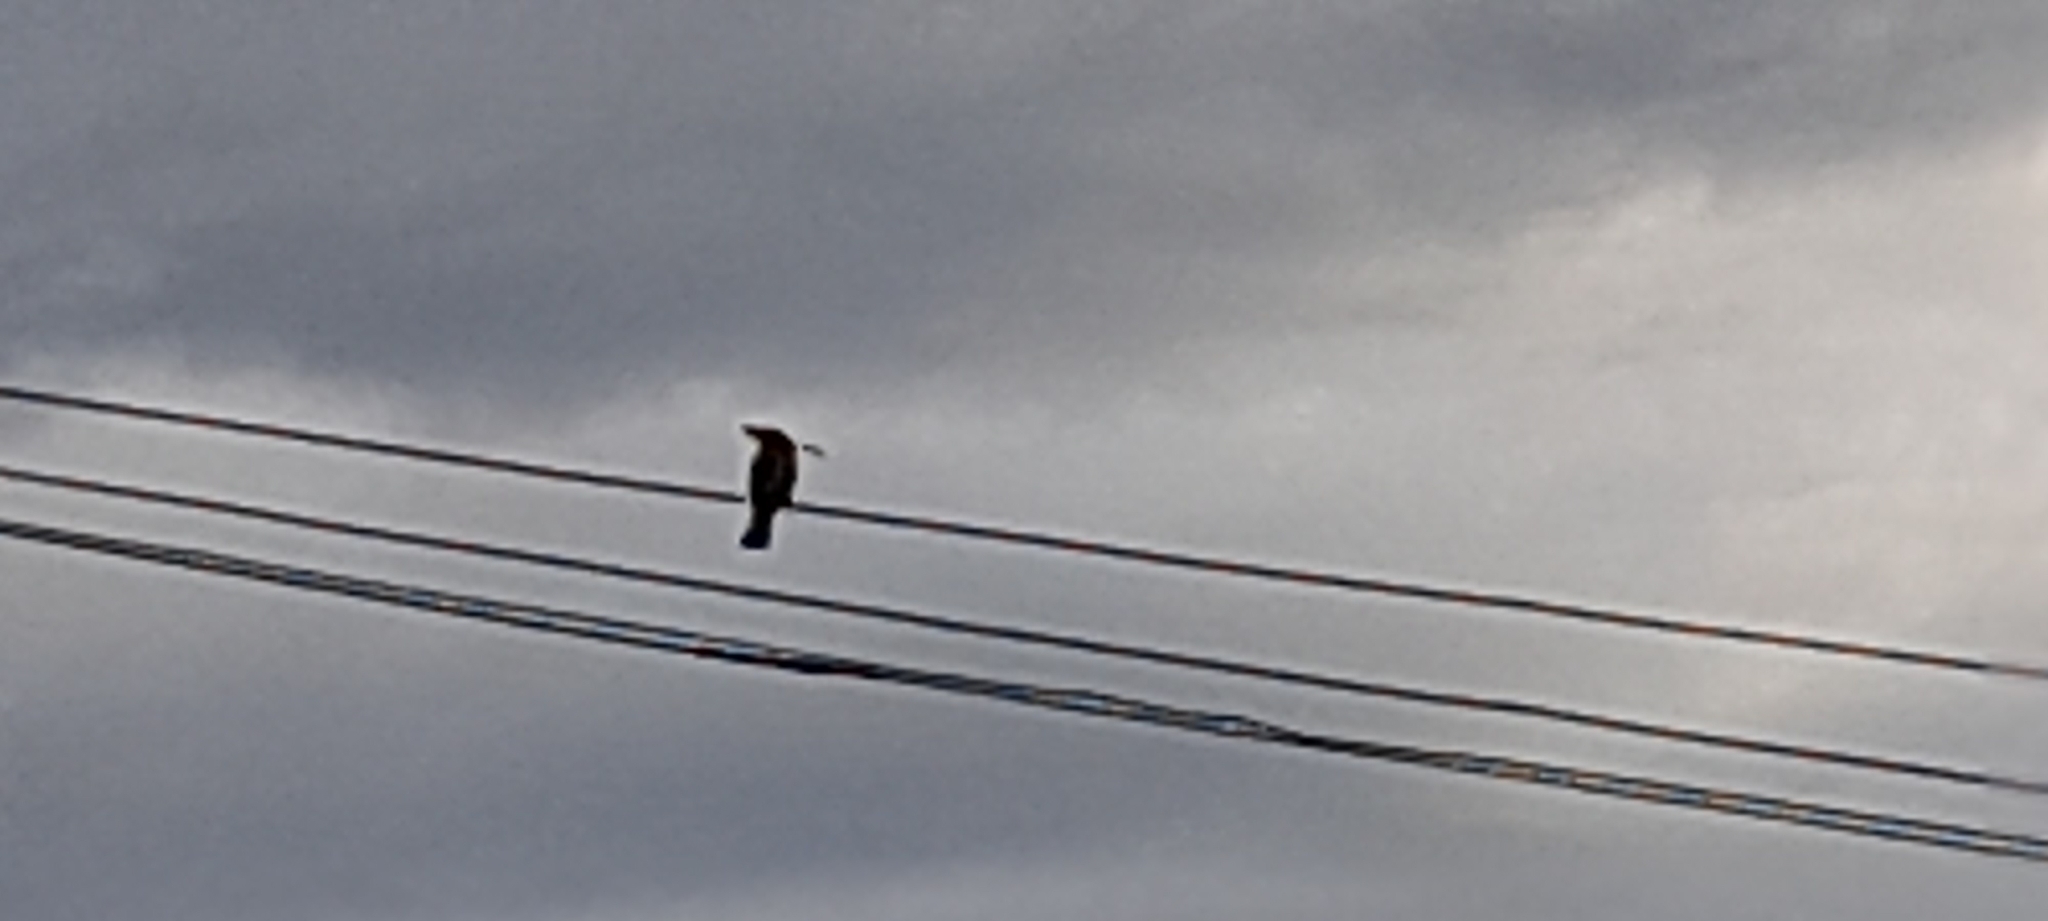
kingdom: Animalia
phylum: Chordata
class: Aves
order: Bucerotiformes
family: Upupidae
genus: Upupa
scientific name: Upupa epops
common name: Eurasian hoopoe
